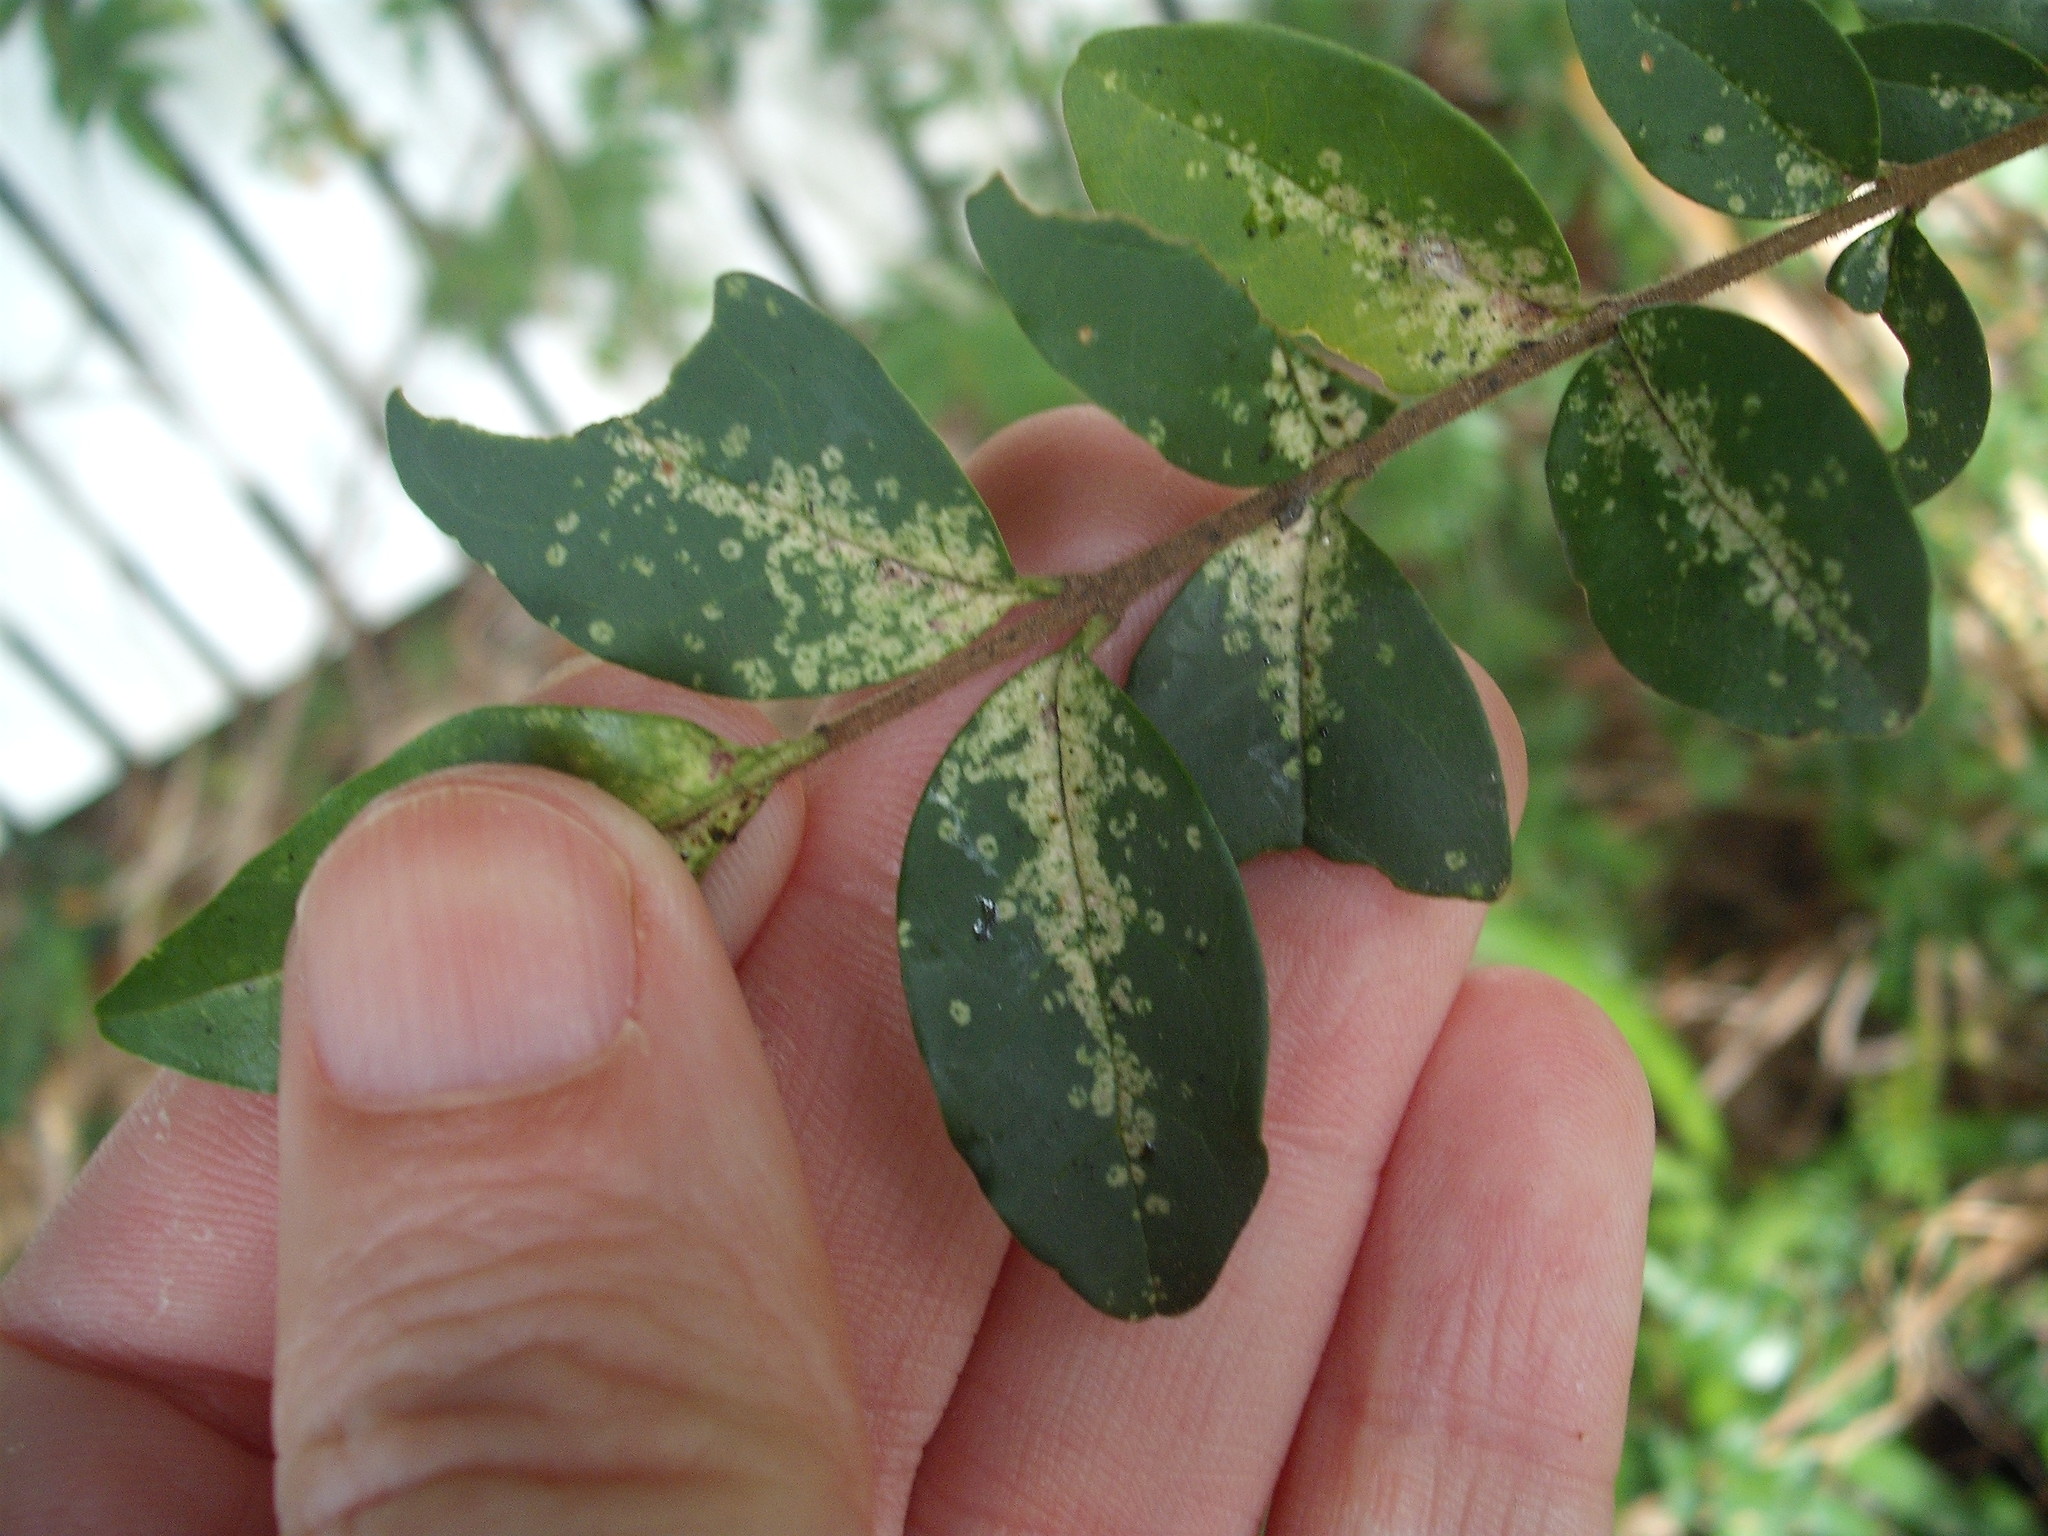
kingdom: Animalia
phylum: Arthropoda
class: Insecta
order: Hemiptera
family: Tingidae
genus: Leptoypha
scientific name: Leptoypha hospita
